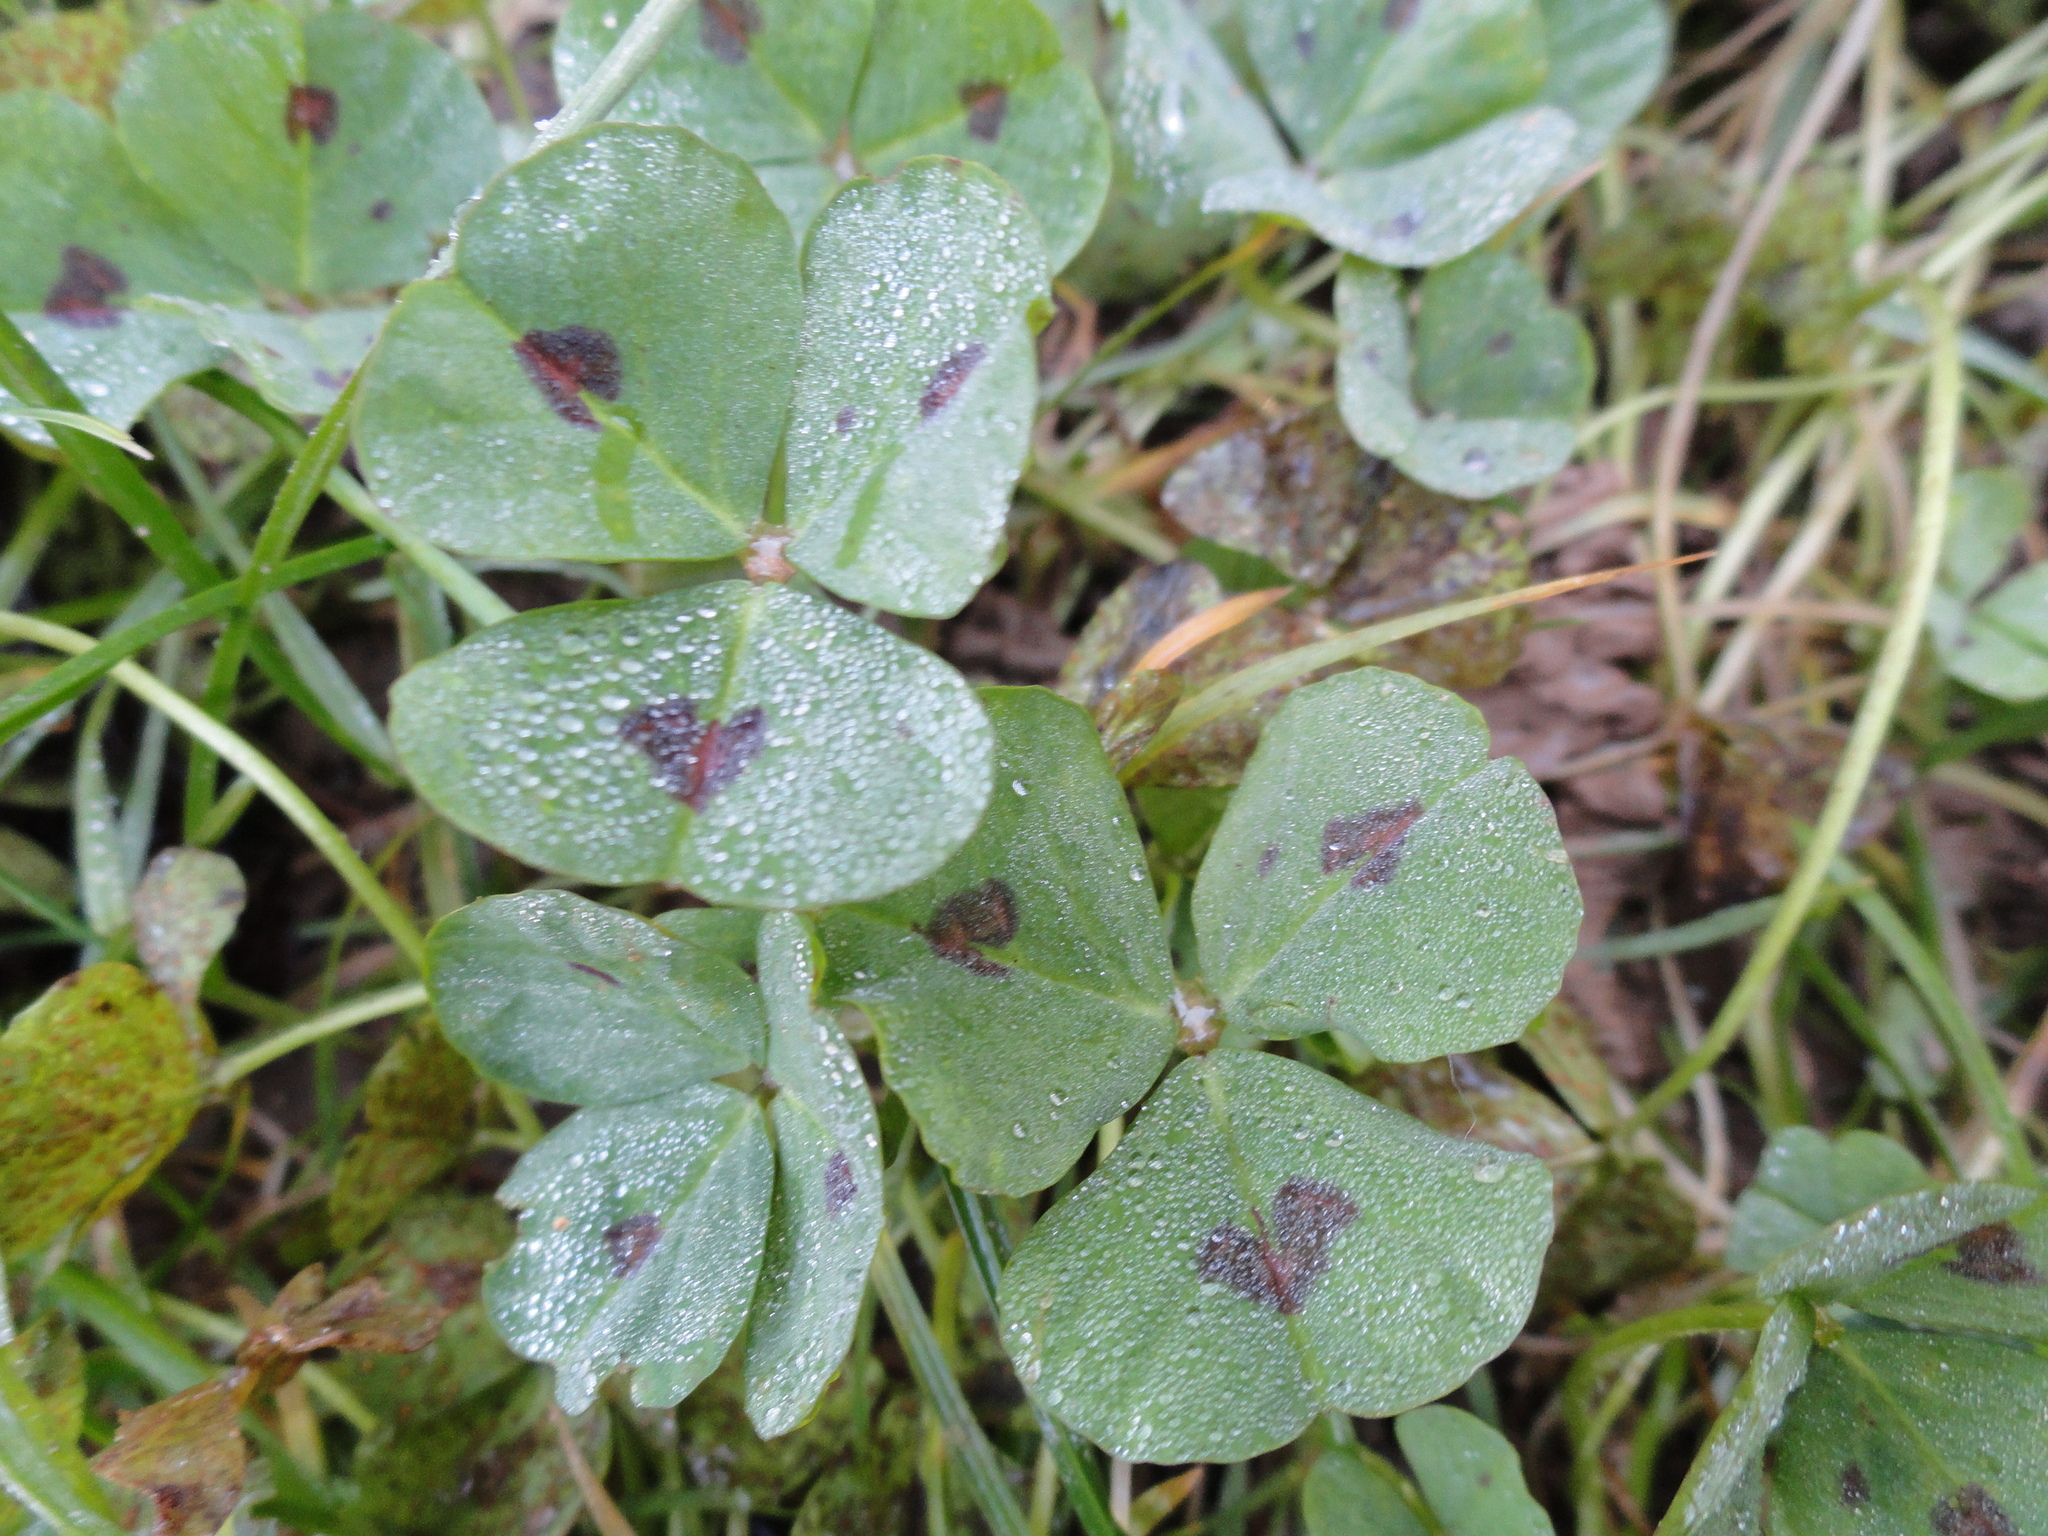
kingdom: Plantae
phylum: Tracheophyta
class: Magnoliopsida
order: Fabales
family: Fabaceae
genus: Medicago
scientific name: Medicago arabica
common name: Spotted medick
